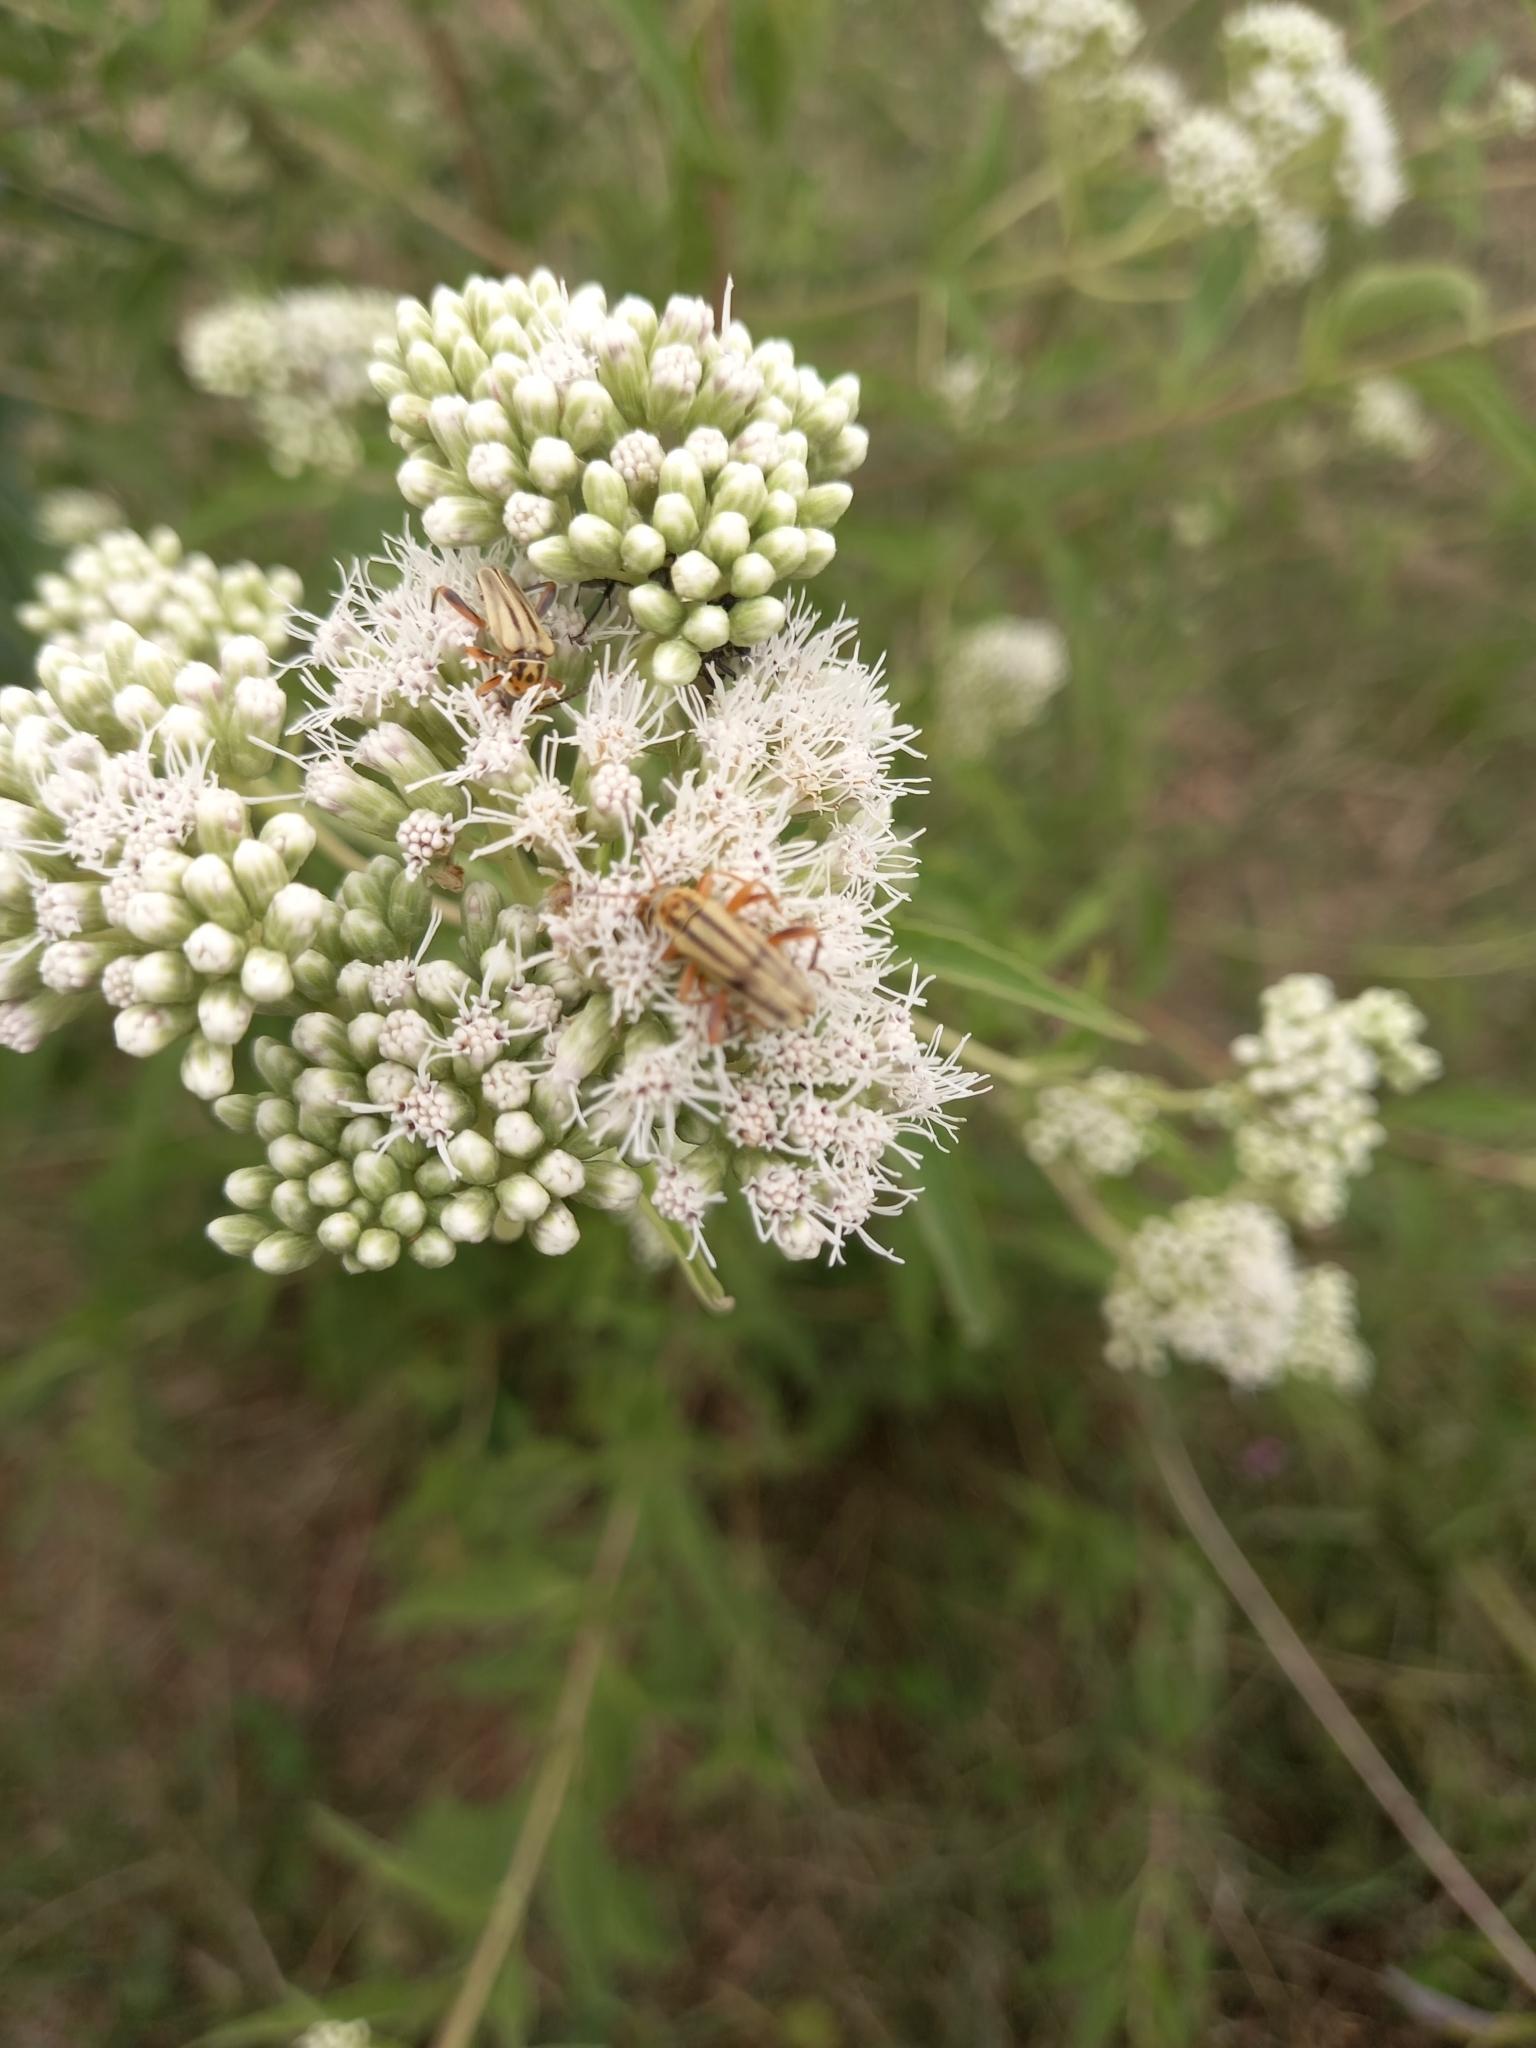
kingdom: Animalia
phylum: Arthropoda
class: Insecta
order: Coleoptera
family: Cantharidae
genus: Chauliognathus
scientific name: Chauliognathus
